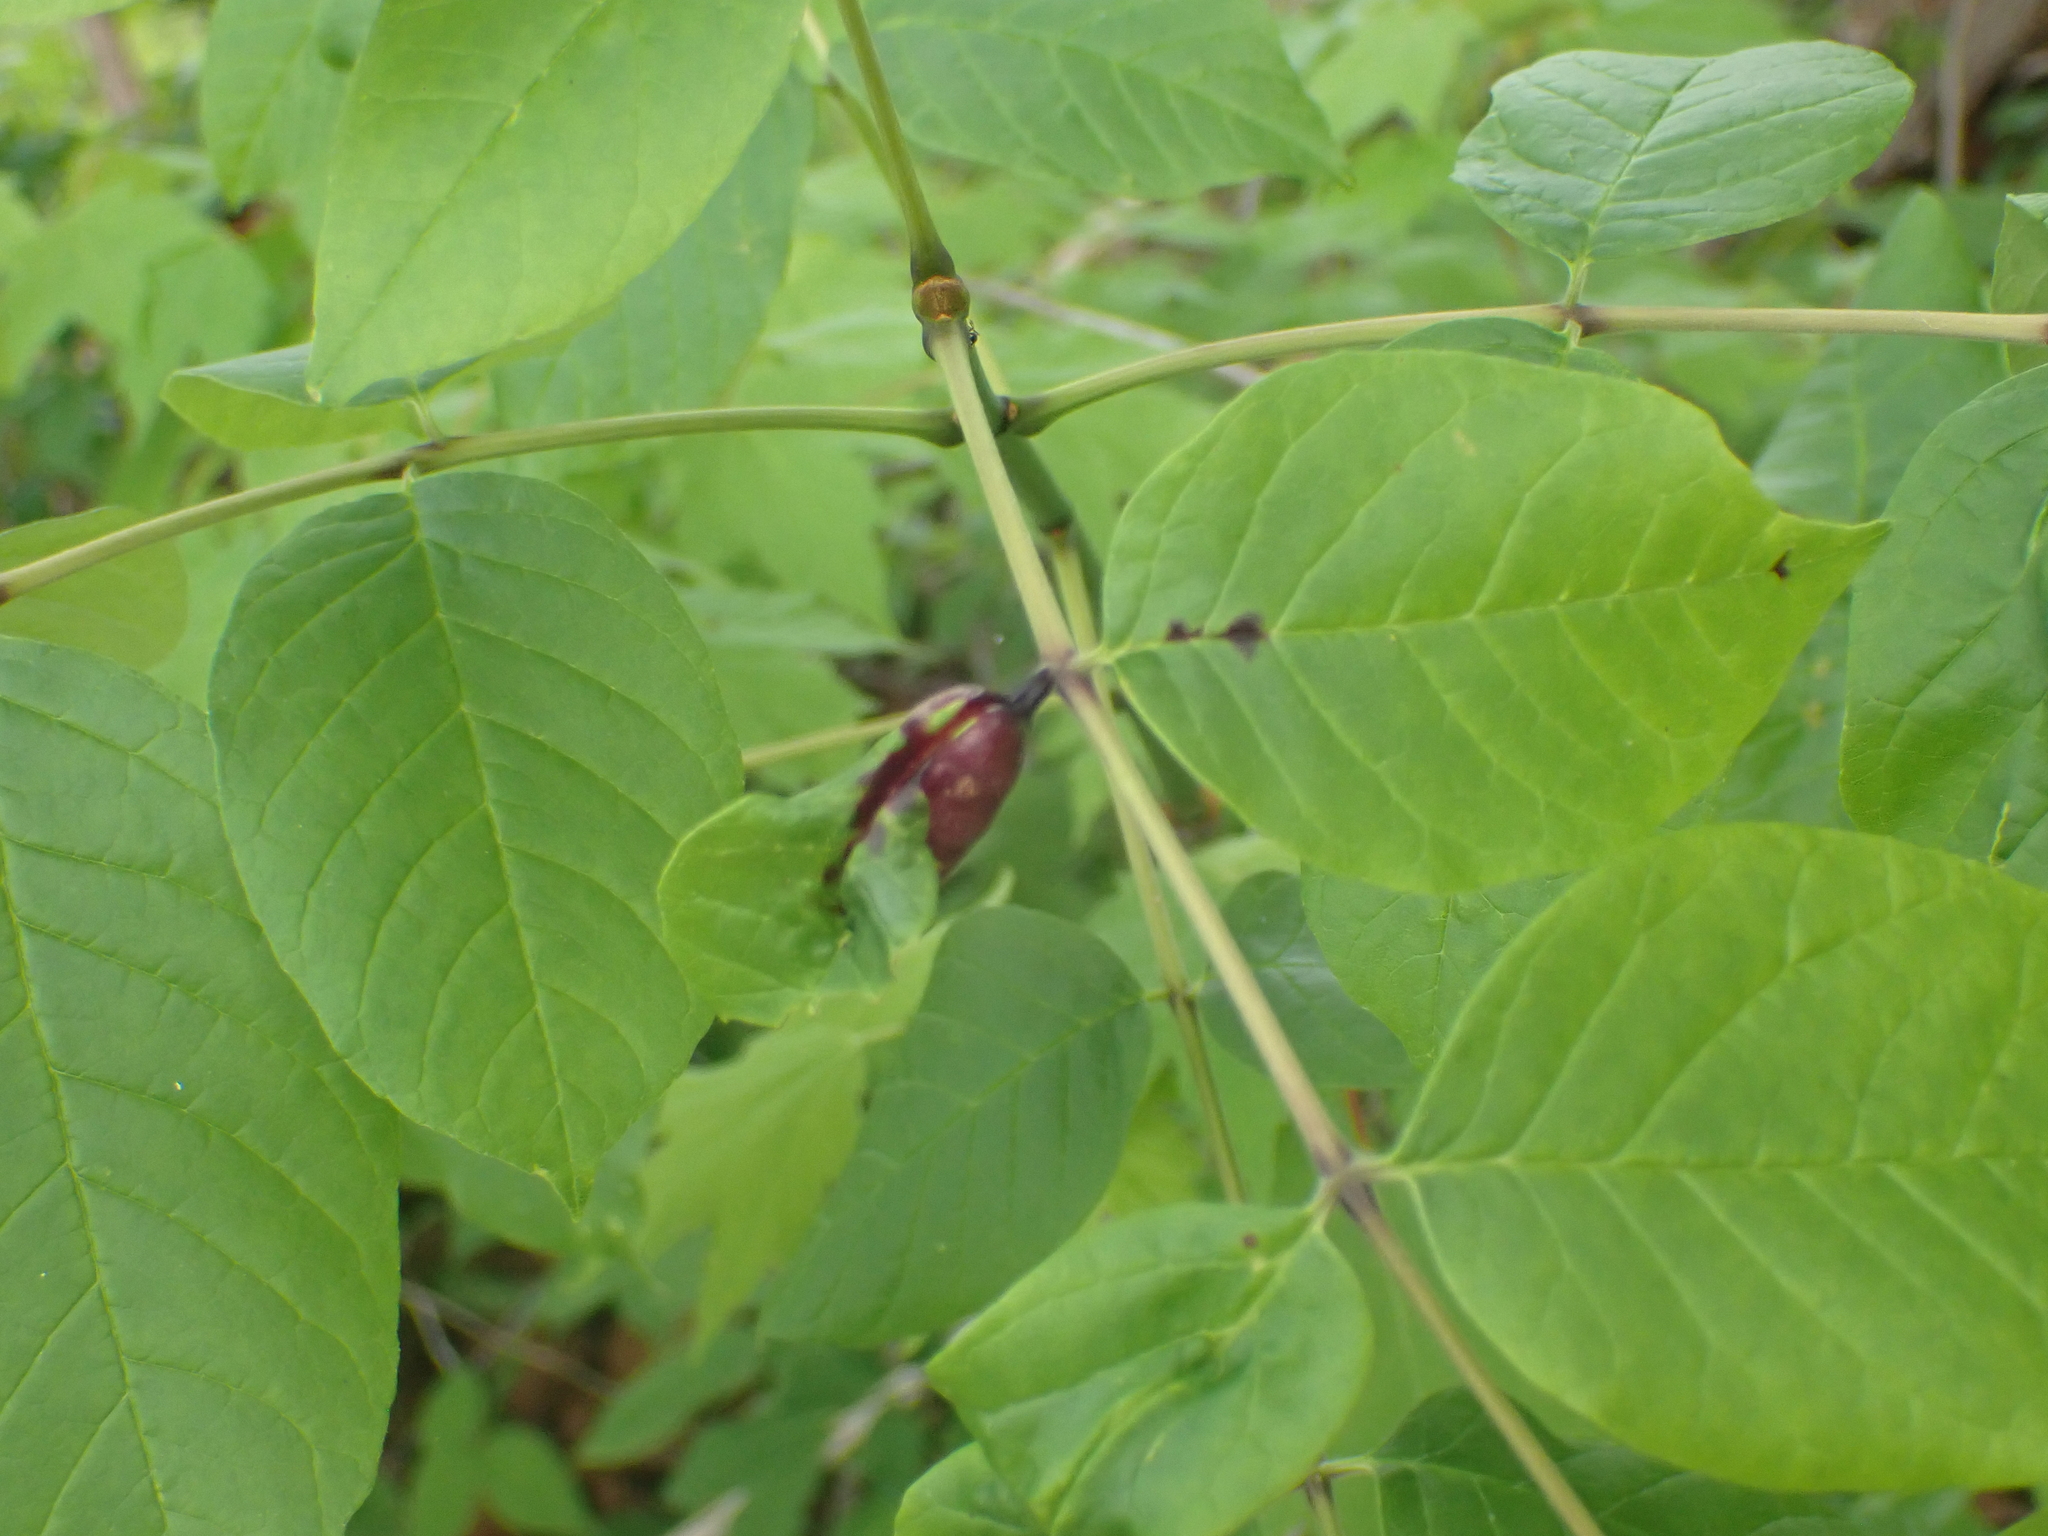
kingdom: Animalia
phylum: Arthropoda
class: Insecta
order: Diptera
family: Cecidomyiidae
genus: Dasineura
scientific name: Dasineura tumidosae
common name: Ash petiole gall midge
